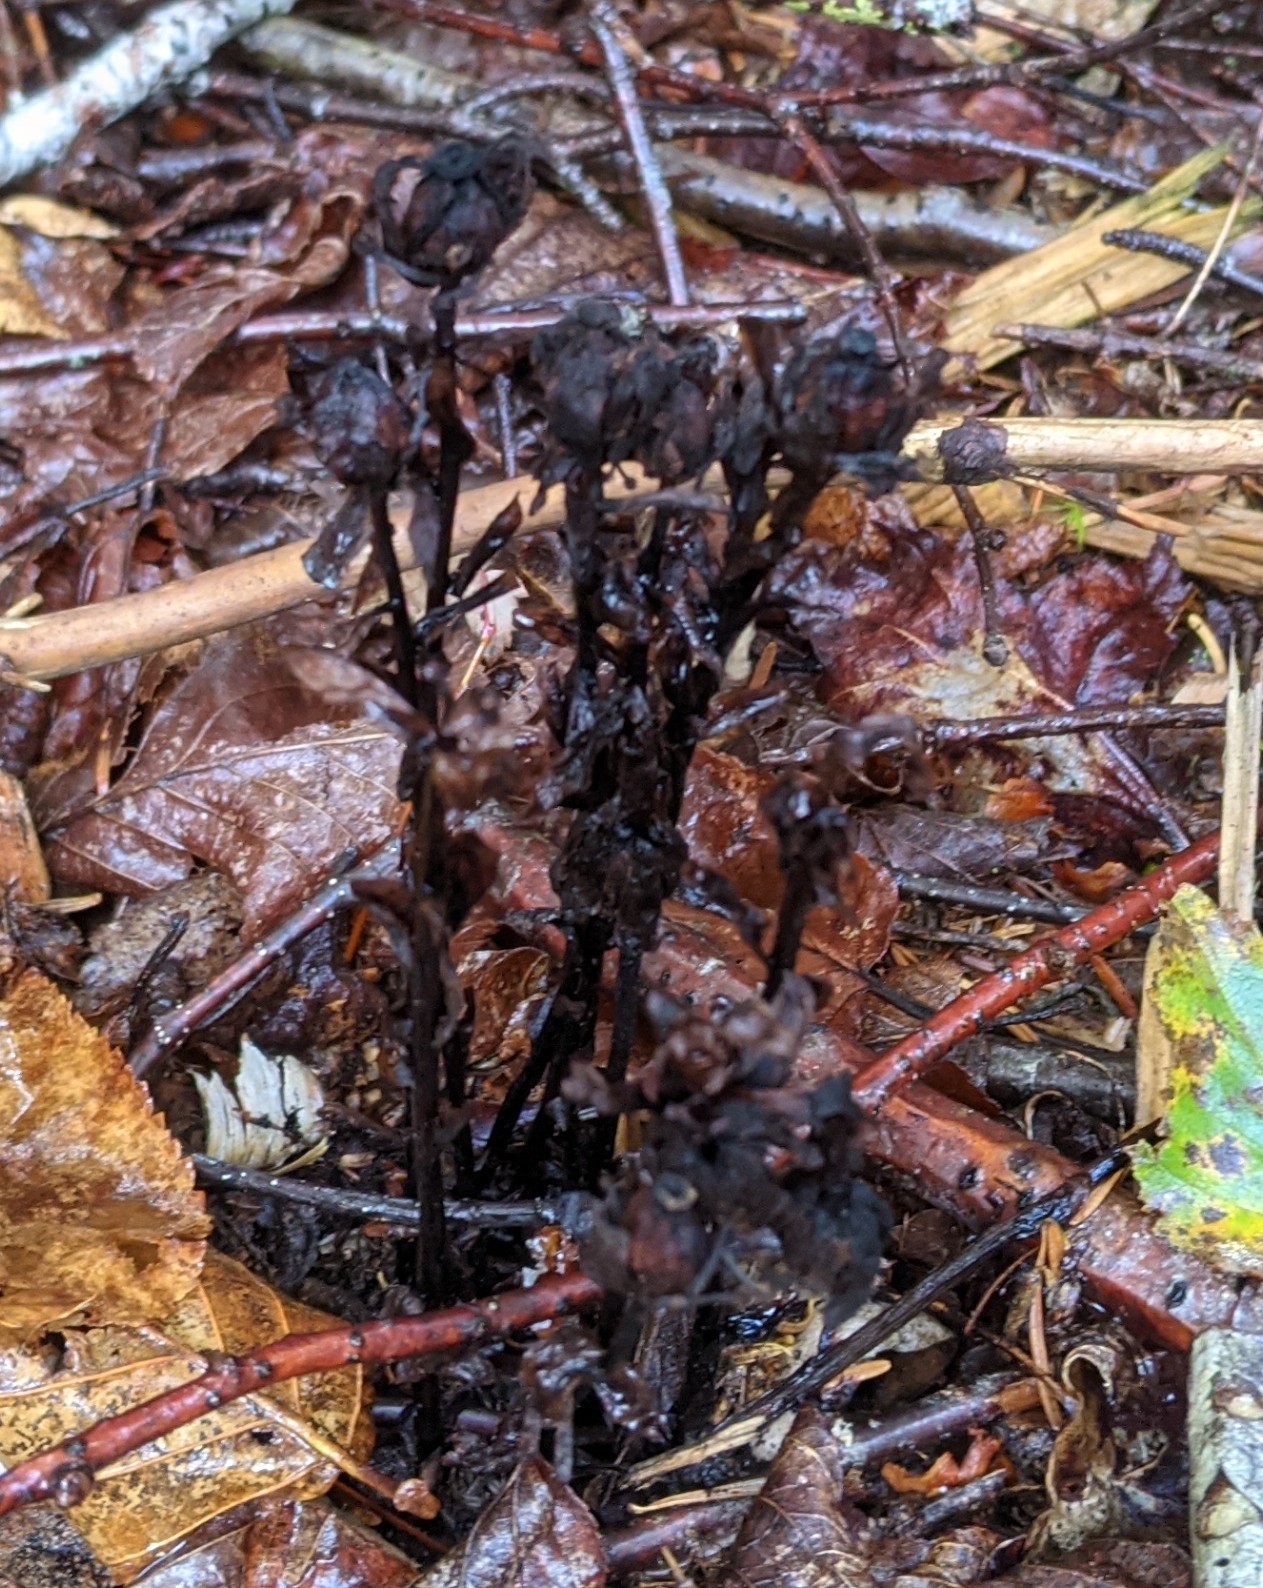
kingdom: Plantae
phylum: Tracheophyta
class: Magnoliopsida
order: Ericales
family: Ericaceae
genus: Monotropa
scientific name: Monotropa uniflora
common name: Convulsion root
